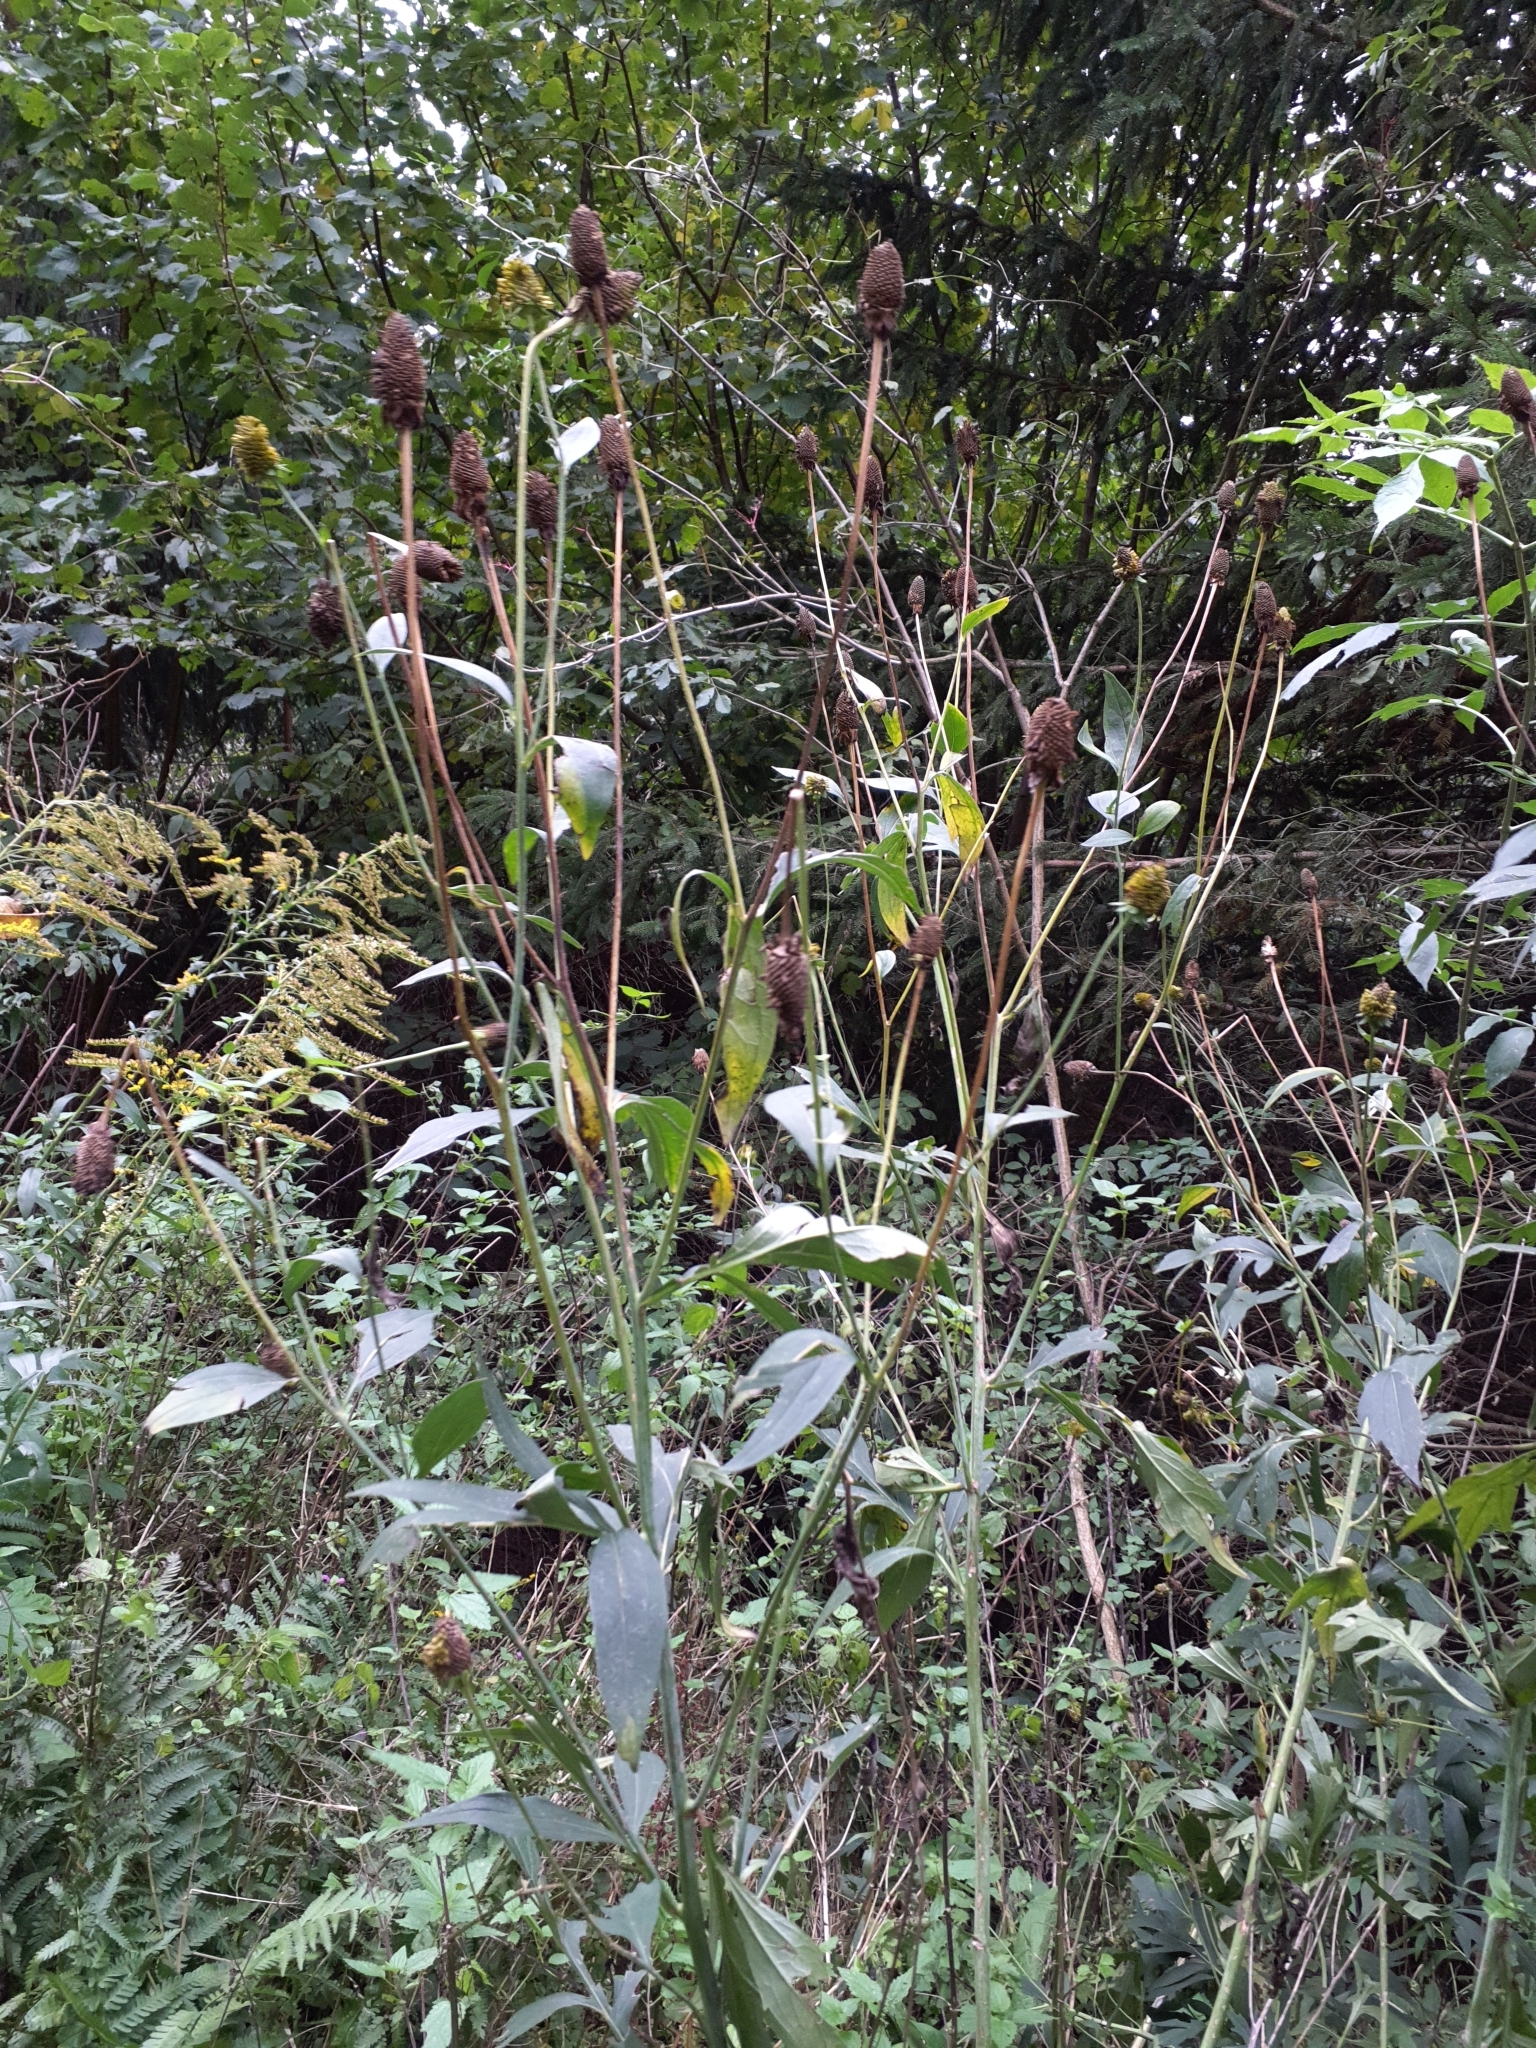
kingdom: Plantae
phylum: Tracheophyta
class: Magnoliopsida
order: Asterales
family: Asteraceae
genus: Rudbeckia
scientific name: Rudbeckia laciniata
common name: Coneflower
